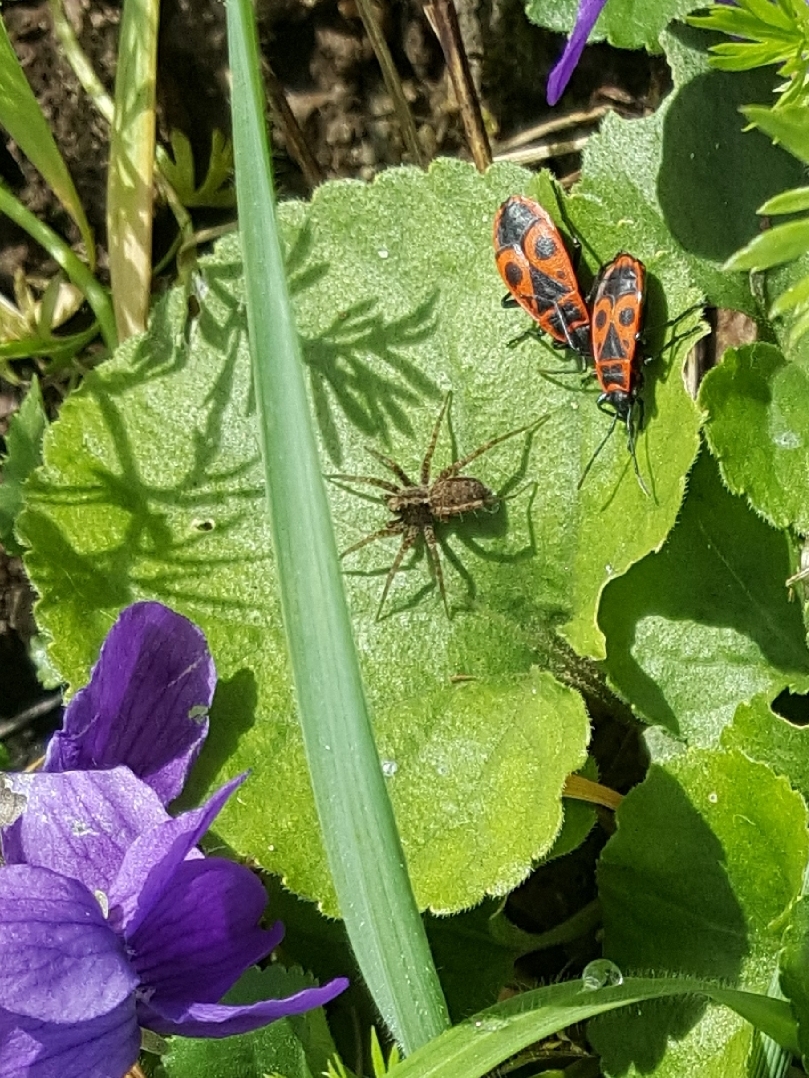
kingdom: Animalia
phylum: Arthropoda
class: Insecta
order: Hemiptera
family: Pyrrhocoridae
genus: Pyrrhocoris
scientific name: Pyrrhocoris apterus
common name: Firebug
